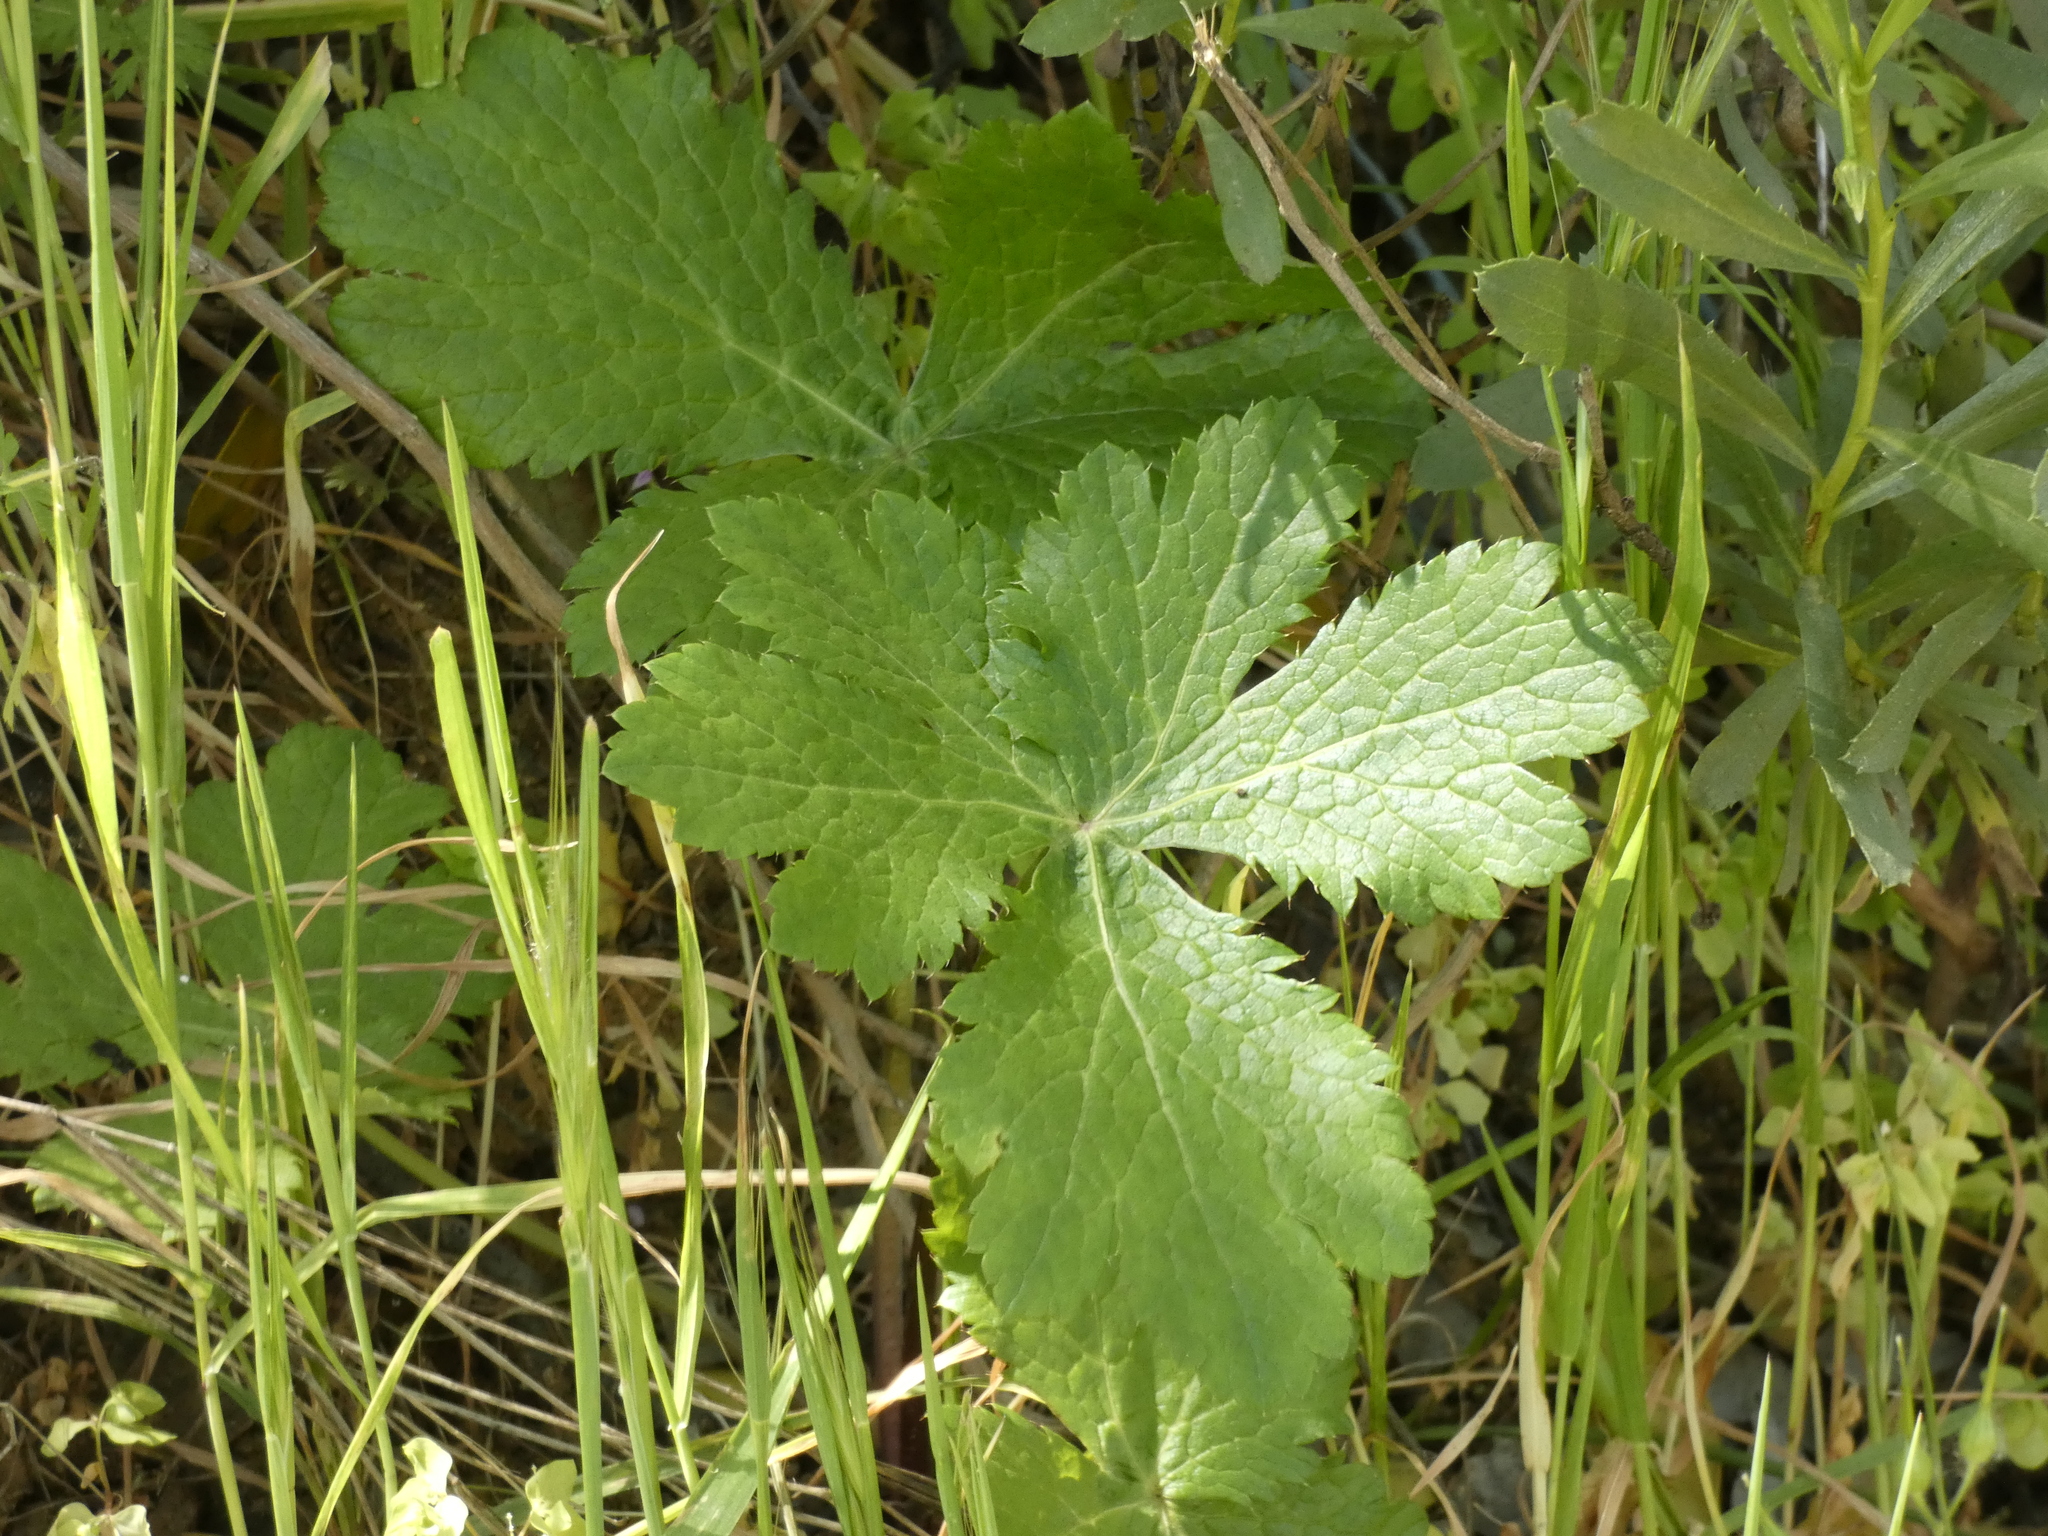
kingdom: Plantae
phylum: Tracheophyta
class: Magnoliopsida
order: Apiales
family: Apiaceae
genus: Sanicula
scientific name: Sanicula crassicaulis
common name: Western snakeroot
